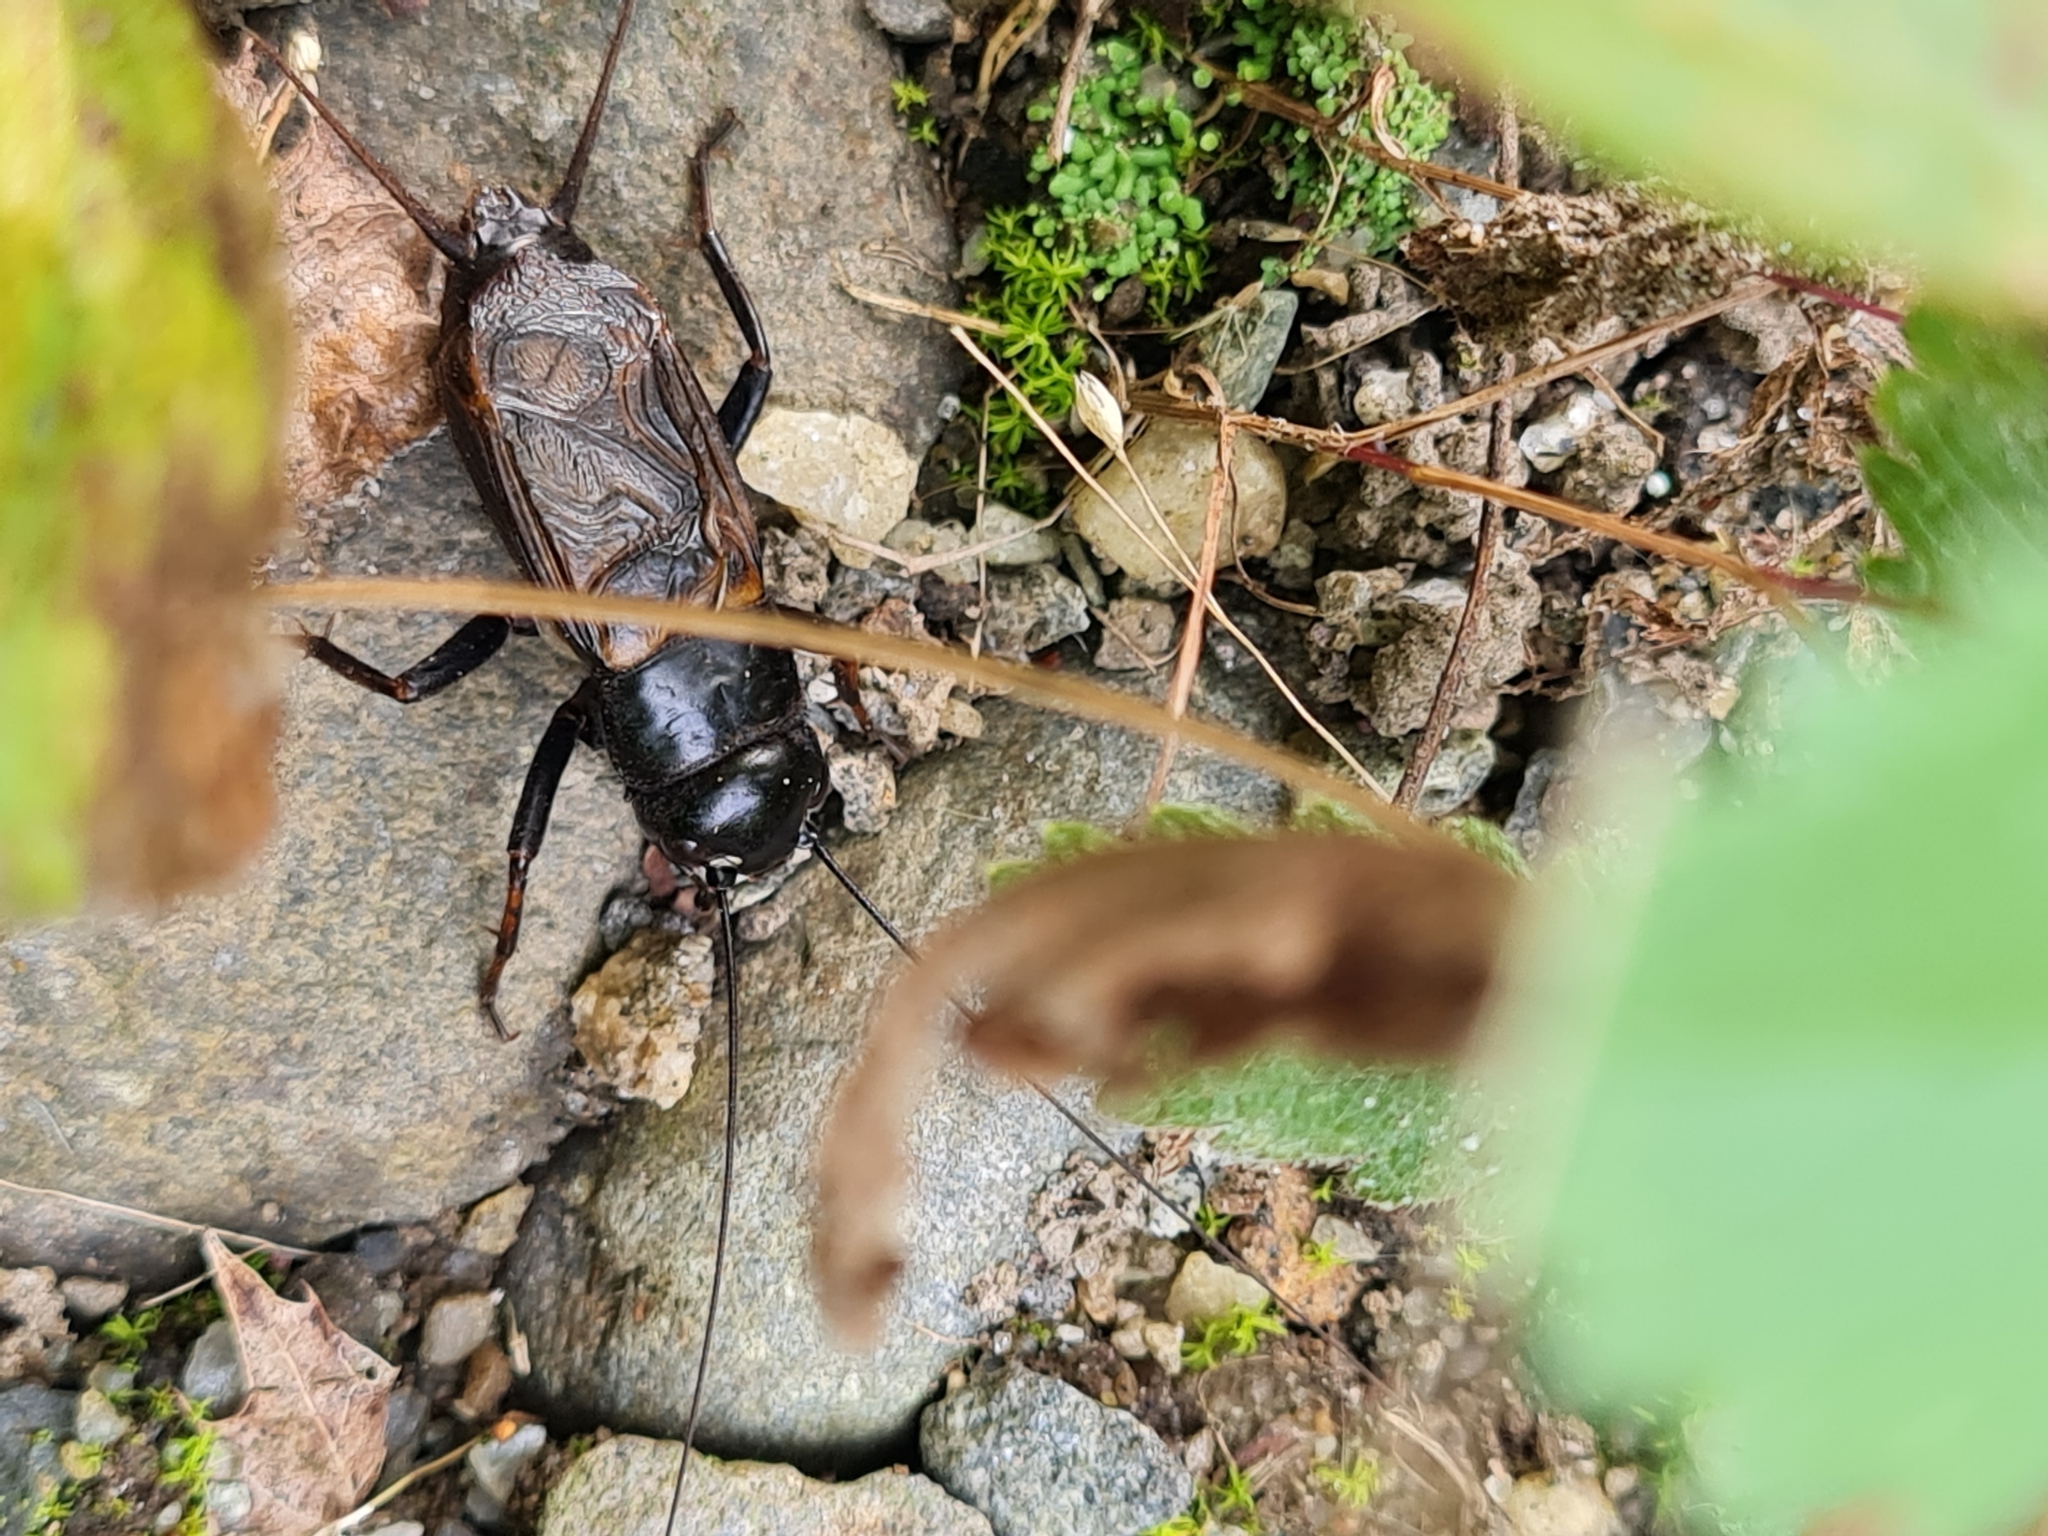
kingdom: Animalia
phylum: Arthropoda
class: Insecta
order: Orthoptera
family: Gryllidae
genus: Gryllus
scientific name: Gryllus pennsylvanicus
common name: Fall field cricket
